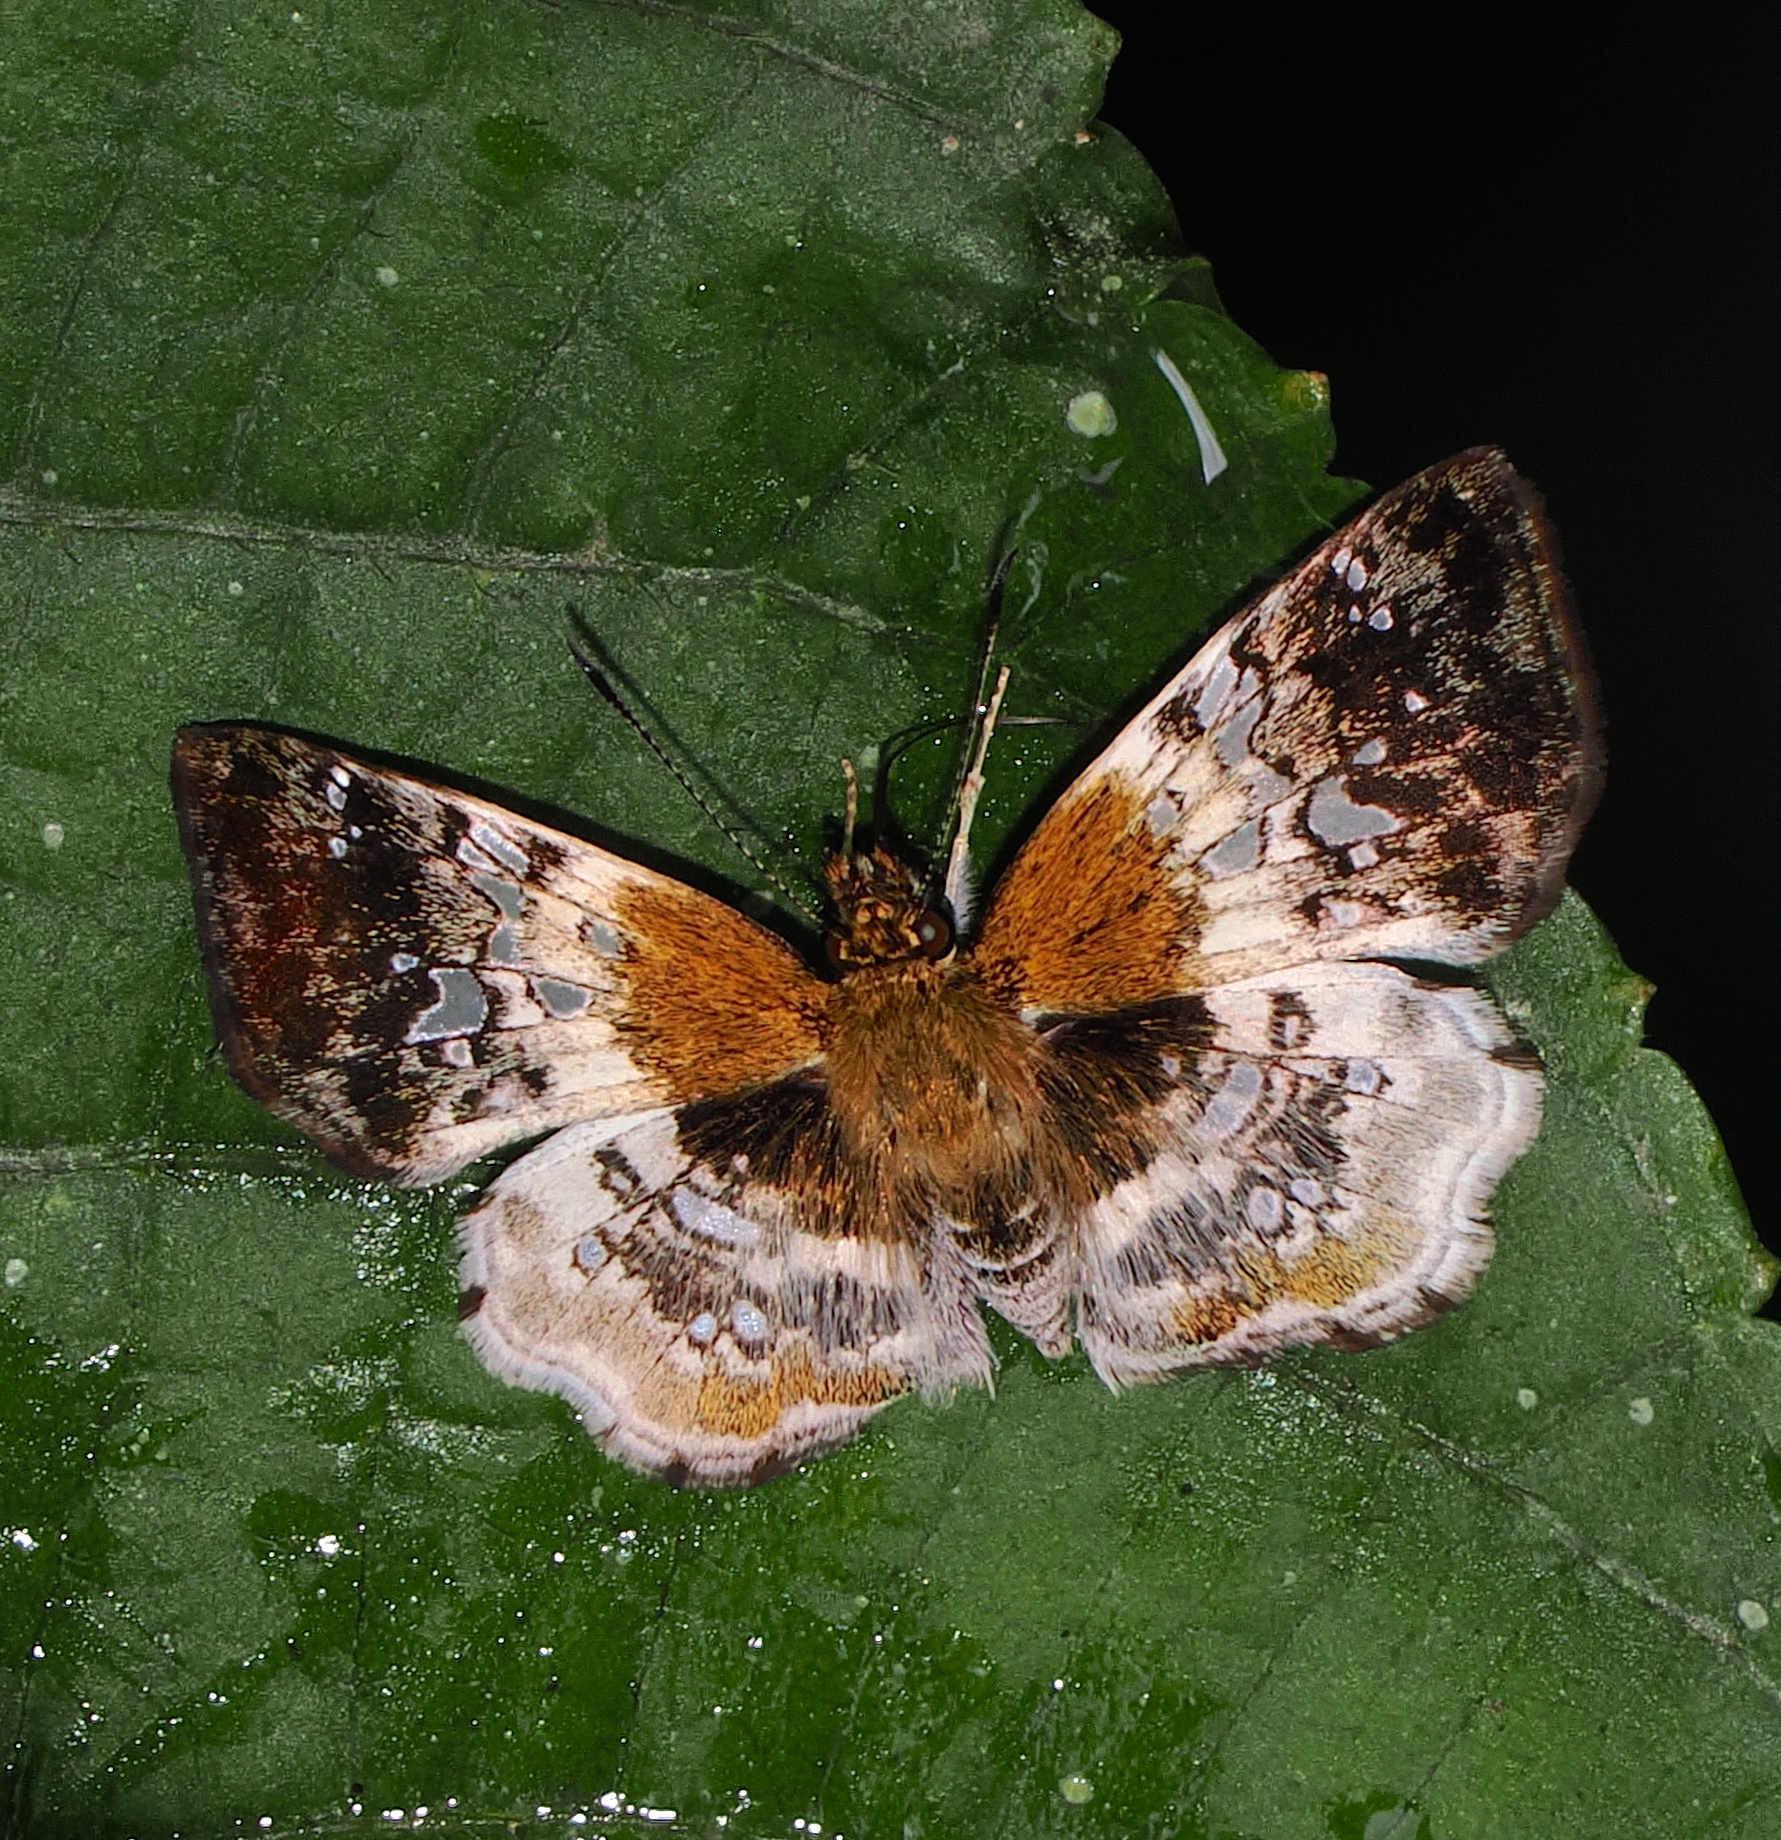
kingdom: Animalia
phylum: Arthropoda
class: Insecta
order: Lepidoptera
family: Hesperiidae
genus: Diaeus
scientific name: Diaeus lacaena
